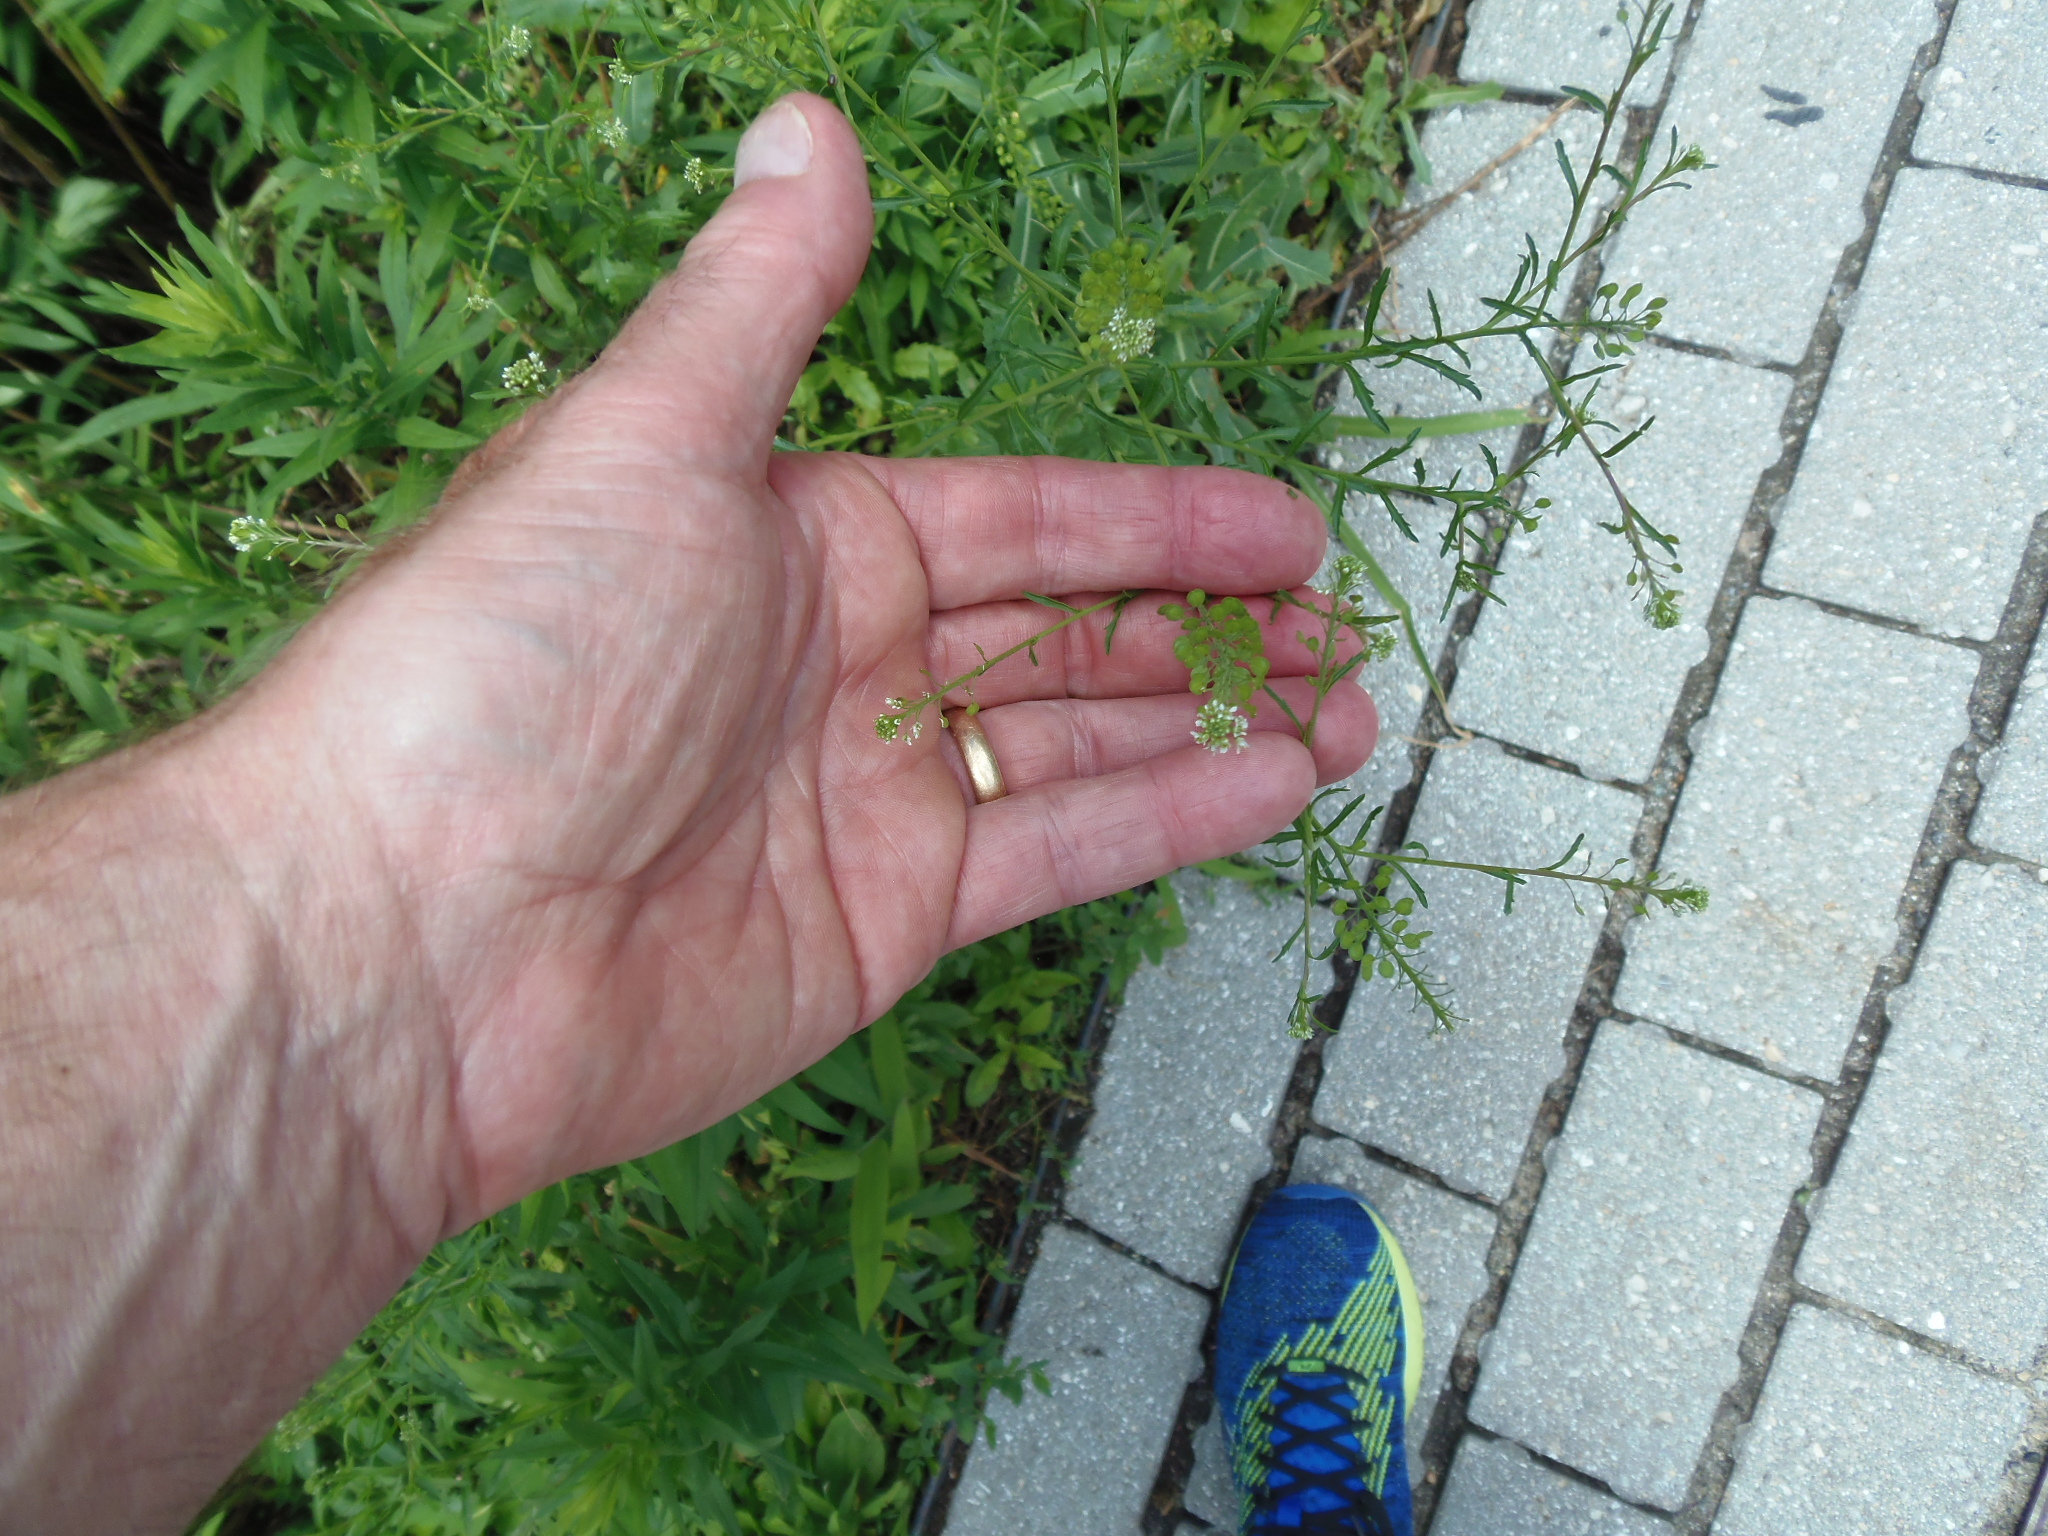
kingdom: Plantae
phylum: Tracheophyta
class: Magnoliopsida
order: Brassicales
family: Brassicaceae
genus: Capsella
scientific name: Capsella bursa-pastoris
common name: Shepherd's purse
